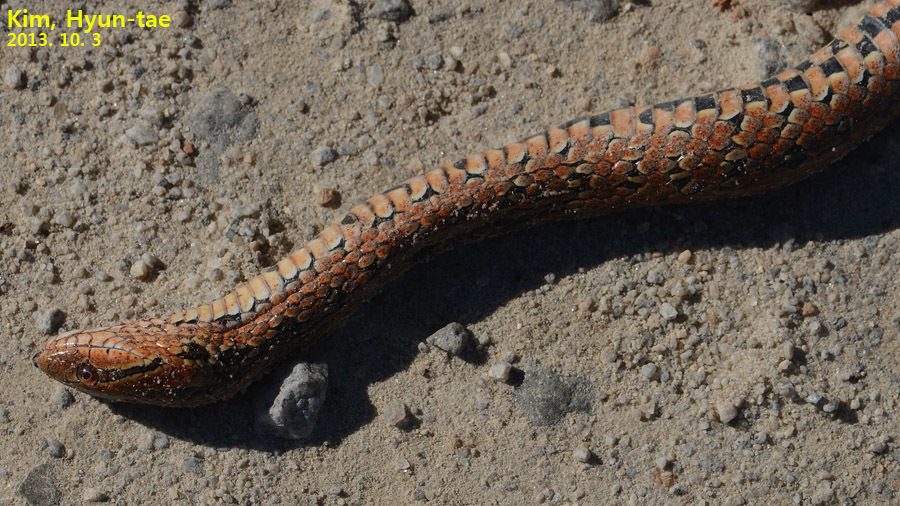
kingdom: Animalia
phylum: Chordata
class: Squamata
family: Colubridae
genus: Oocatochus
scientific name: Oocatochus rufodorsatus
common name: Frog-eating rat snake
